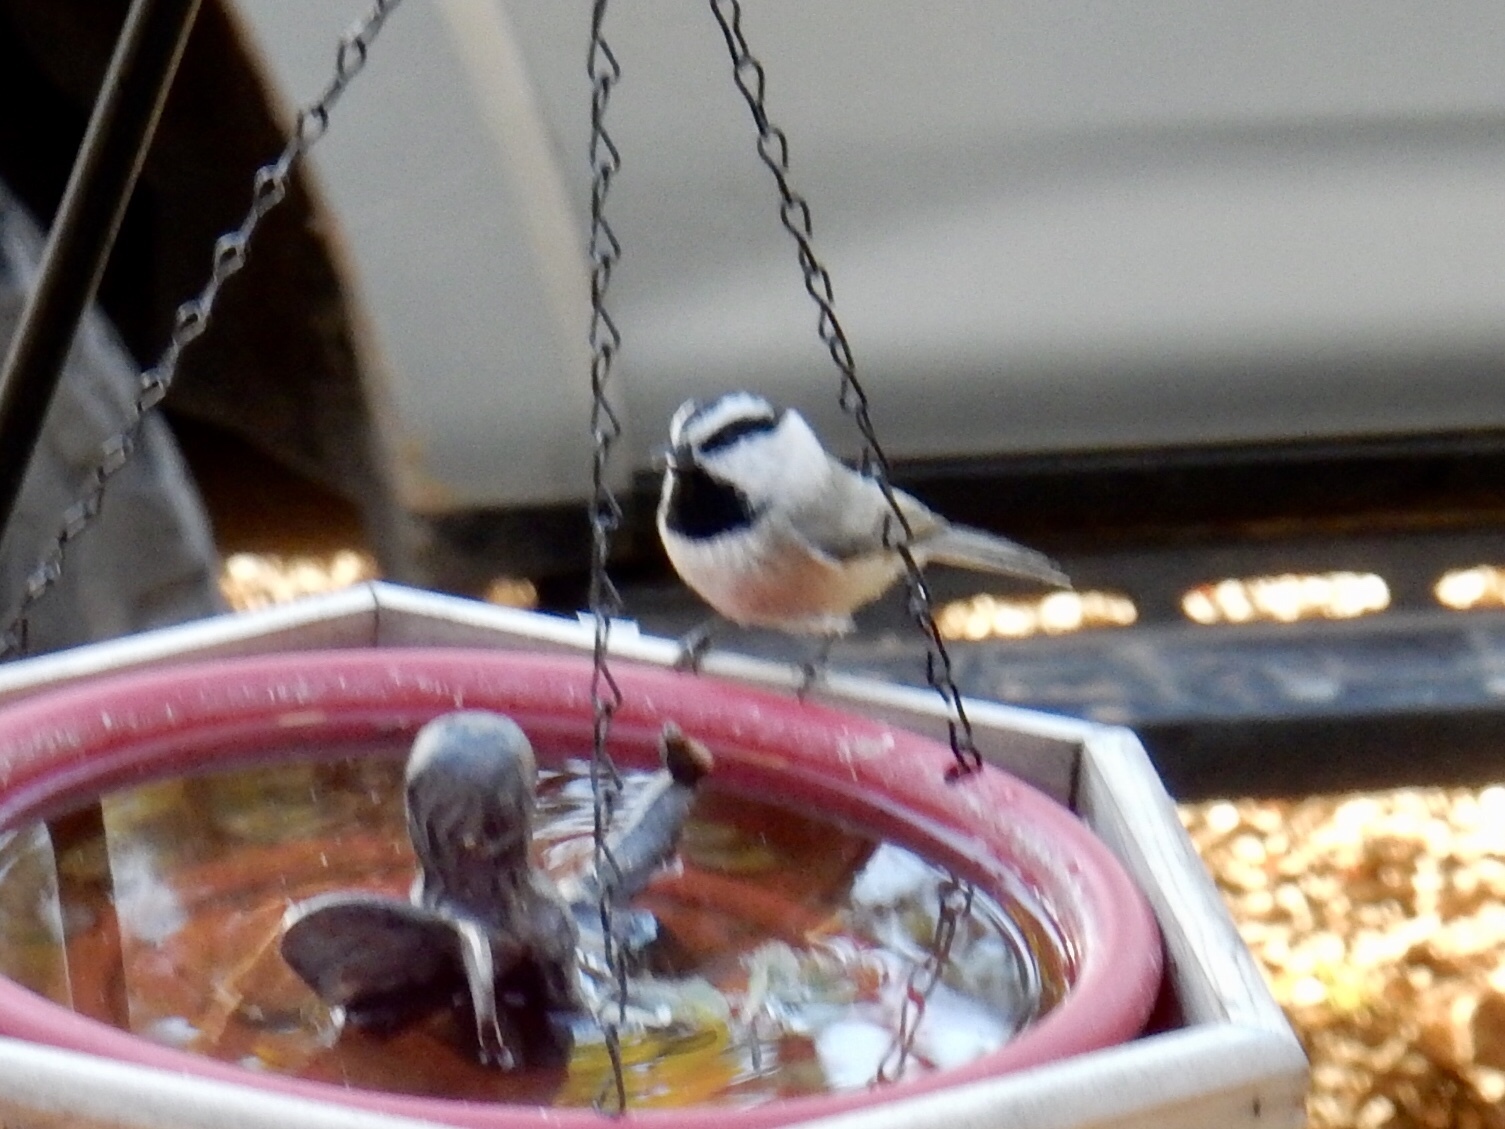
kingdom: Animalia
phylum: Chordata
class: Aves
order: Passeriformes
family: Paridae
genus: Poecile
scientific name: Poecile gambeli
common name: Mountain chickadee
